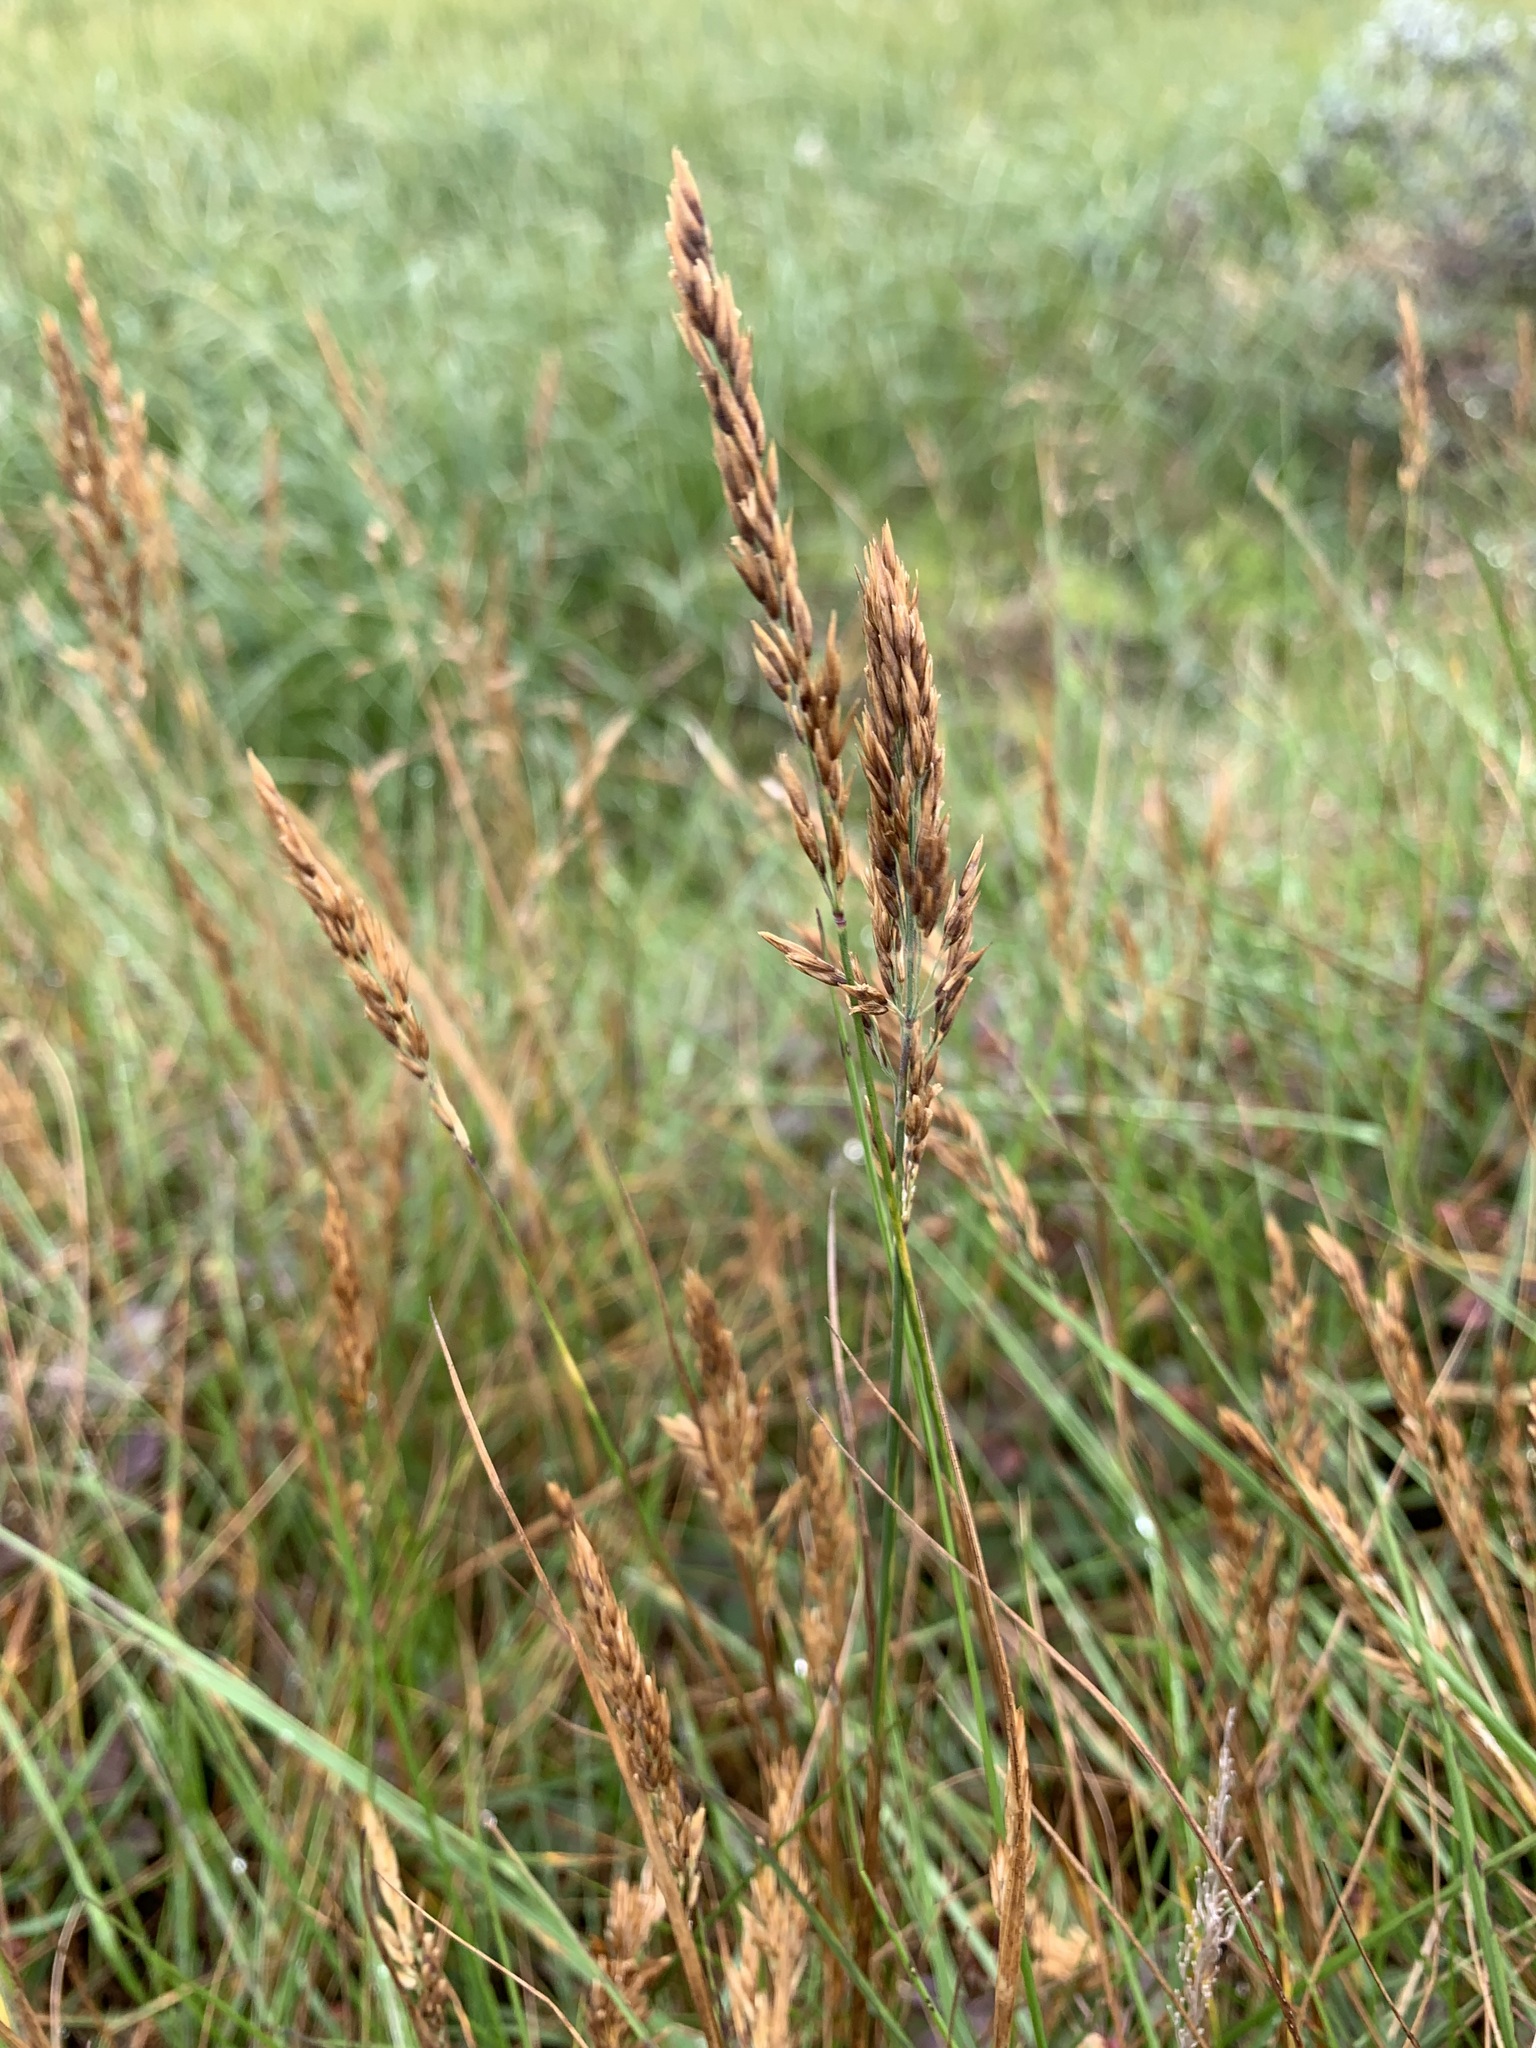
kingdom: Plantae
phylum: Tracheophyta
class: Liliopsida
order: Poales
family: Poaceae
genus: Calamagrostis
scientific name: Calamagrostis holmii
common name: Holm's reedgrass
